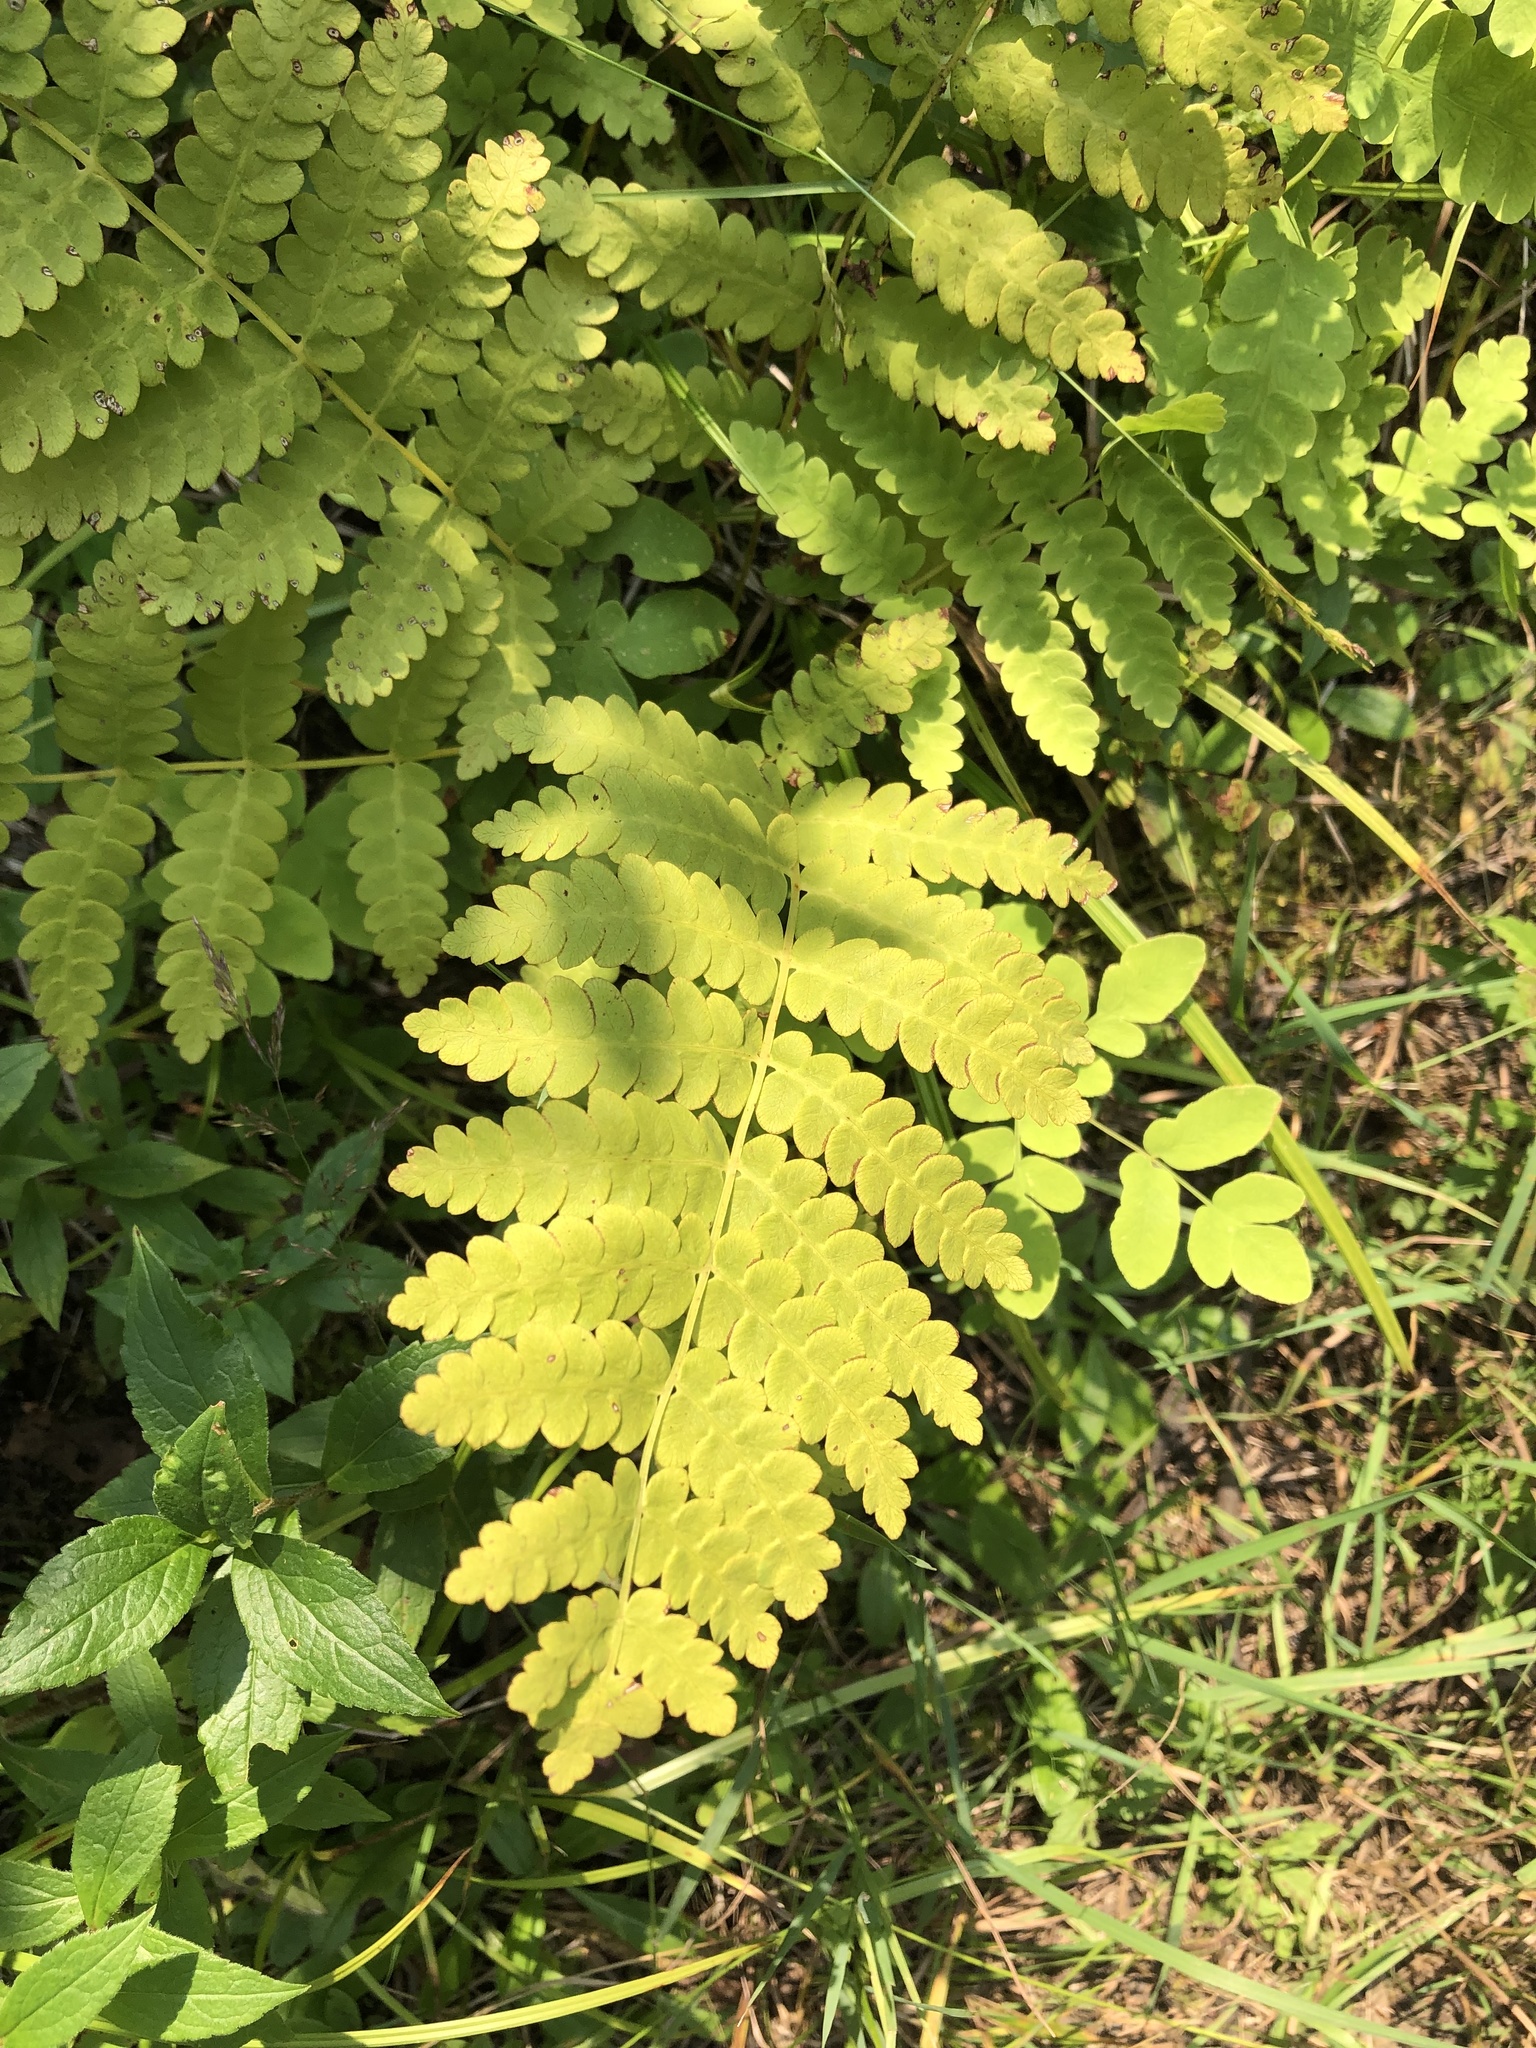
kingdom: Plantae
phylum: Tracheophyta
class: Polypodiopsida
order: Osmundales
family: Osmundaceae
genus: Claytosmunda
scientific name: Claytosmunda claytoniana
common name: Clayton's fern
